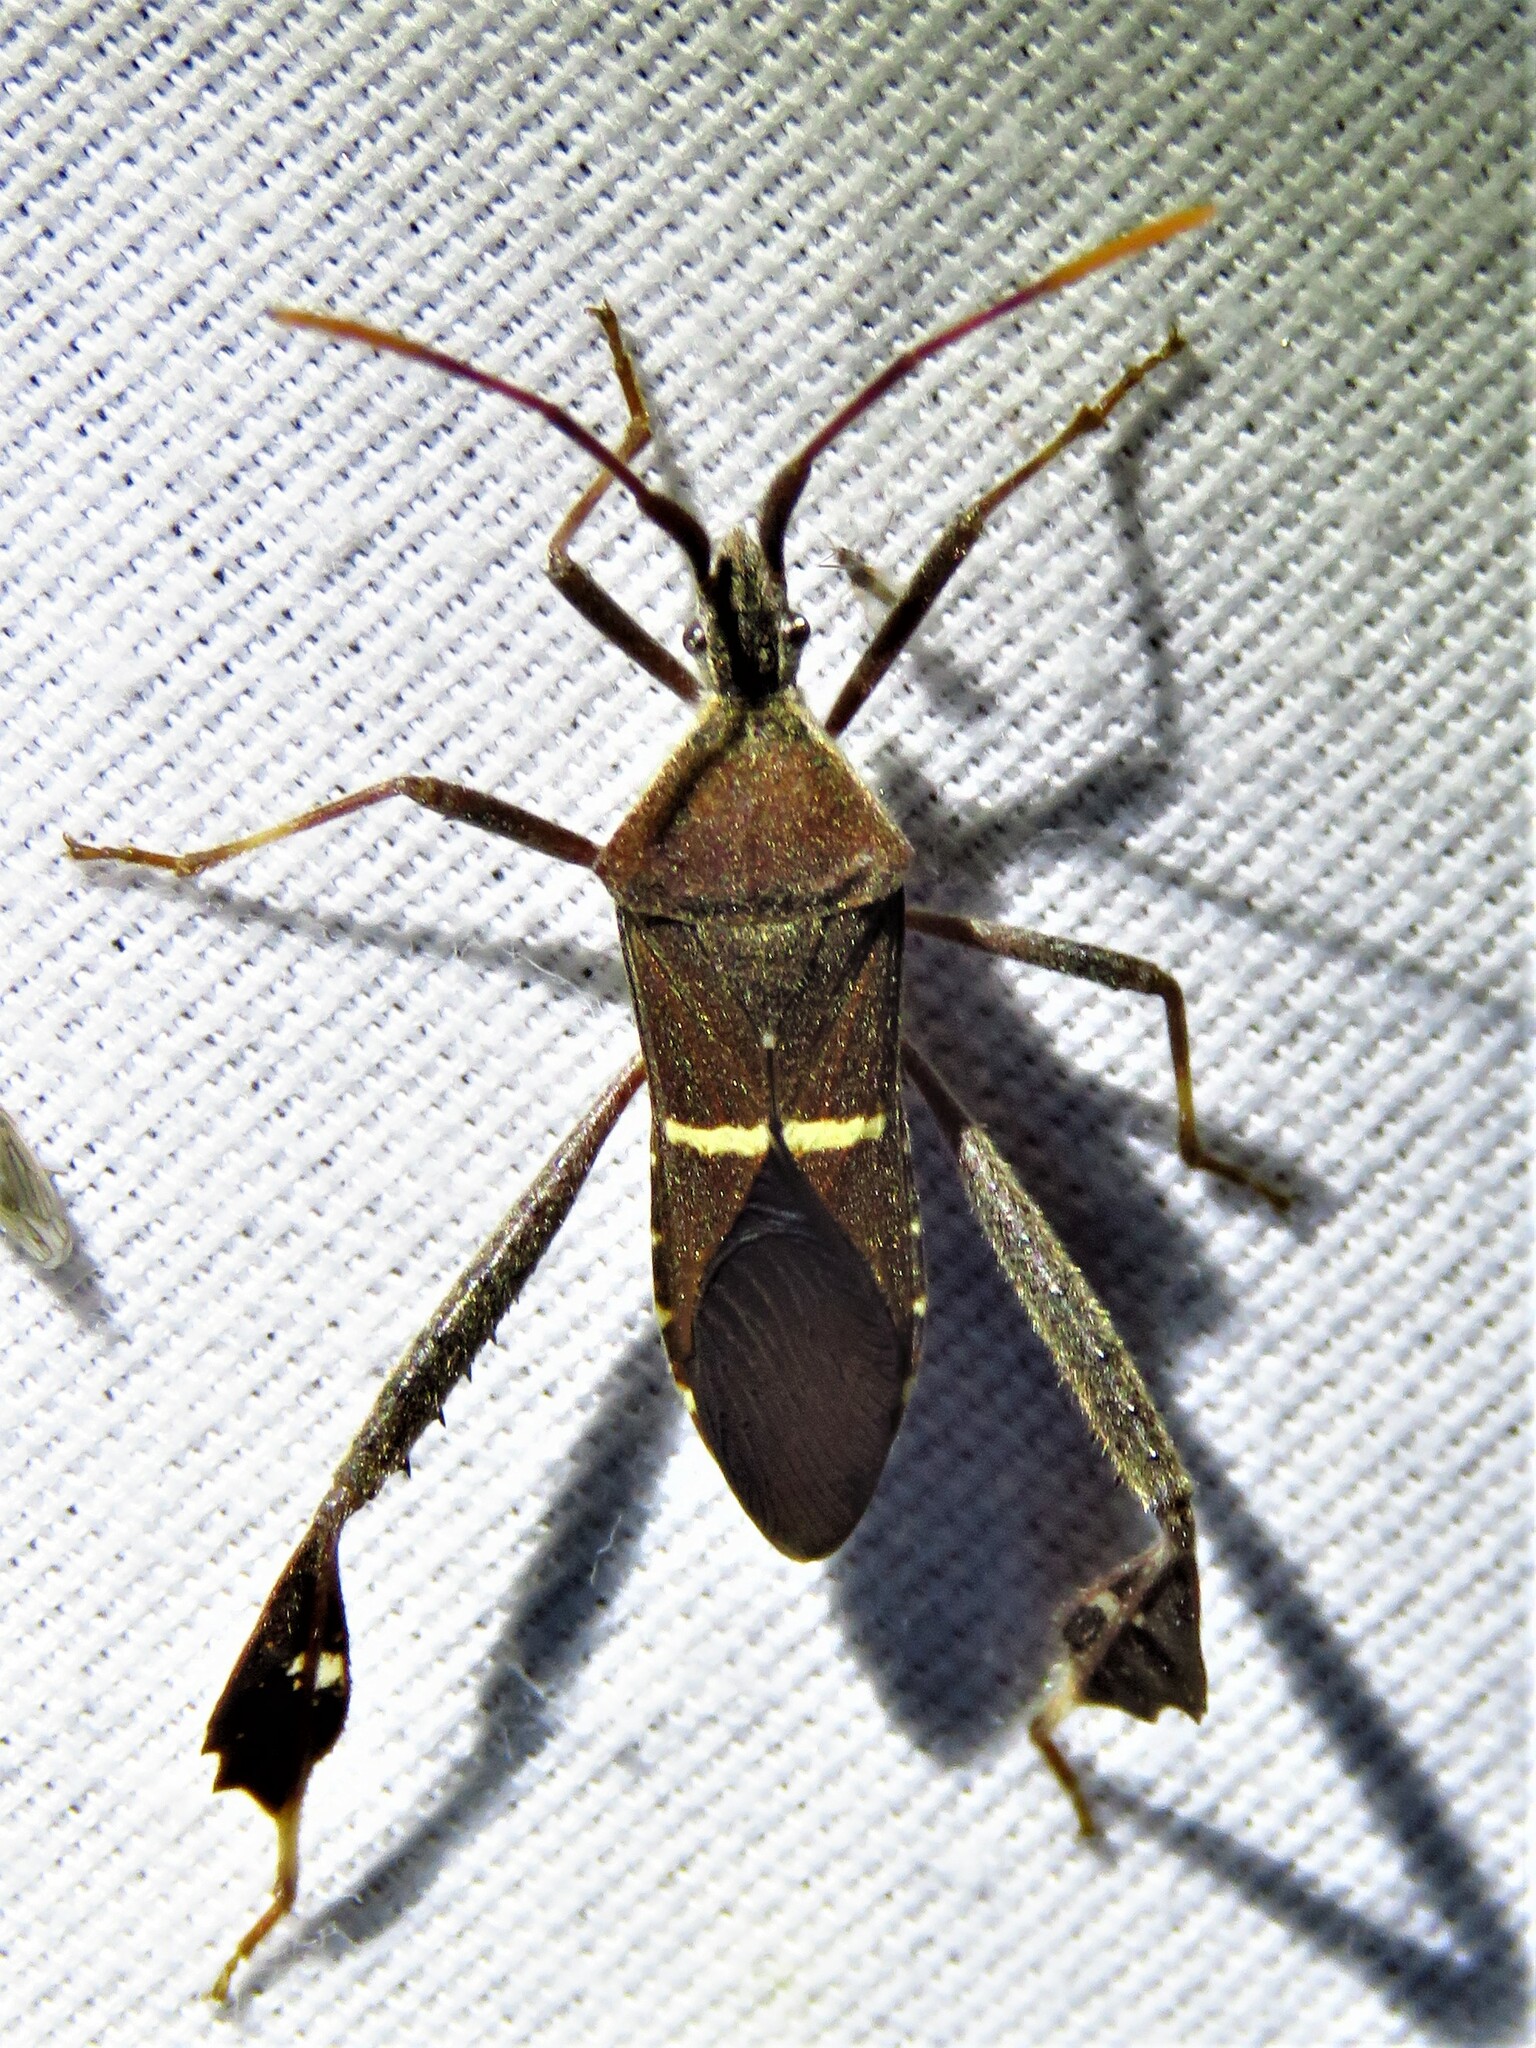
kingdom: Animalia
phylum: Arthropoda
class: Insecta
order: Hemiptera
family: Coreidae
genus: Leptoglossus
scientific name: Leptoglossus phyllopus
